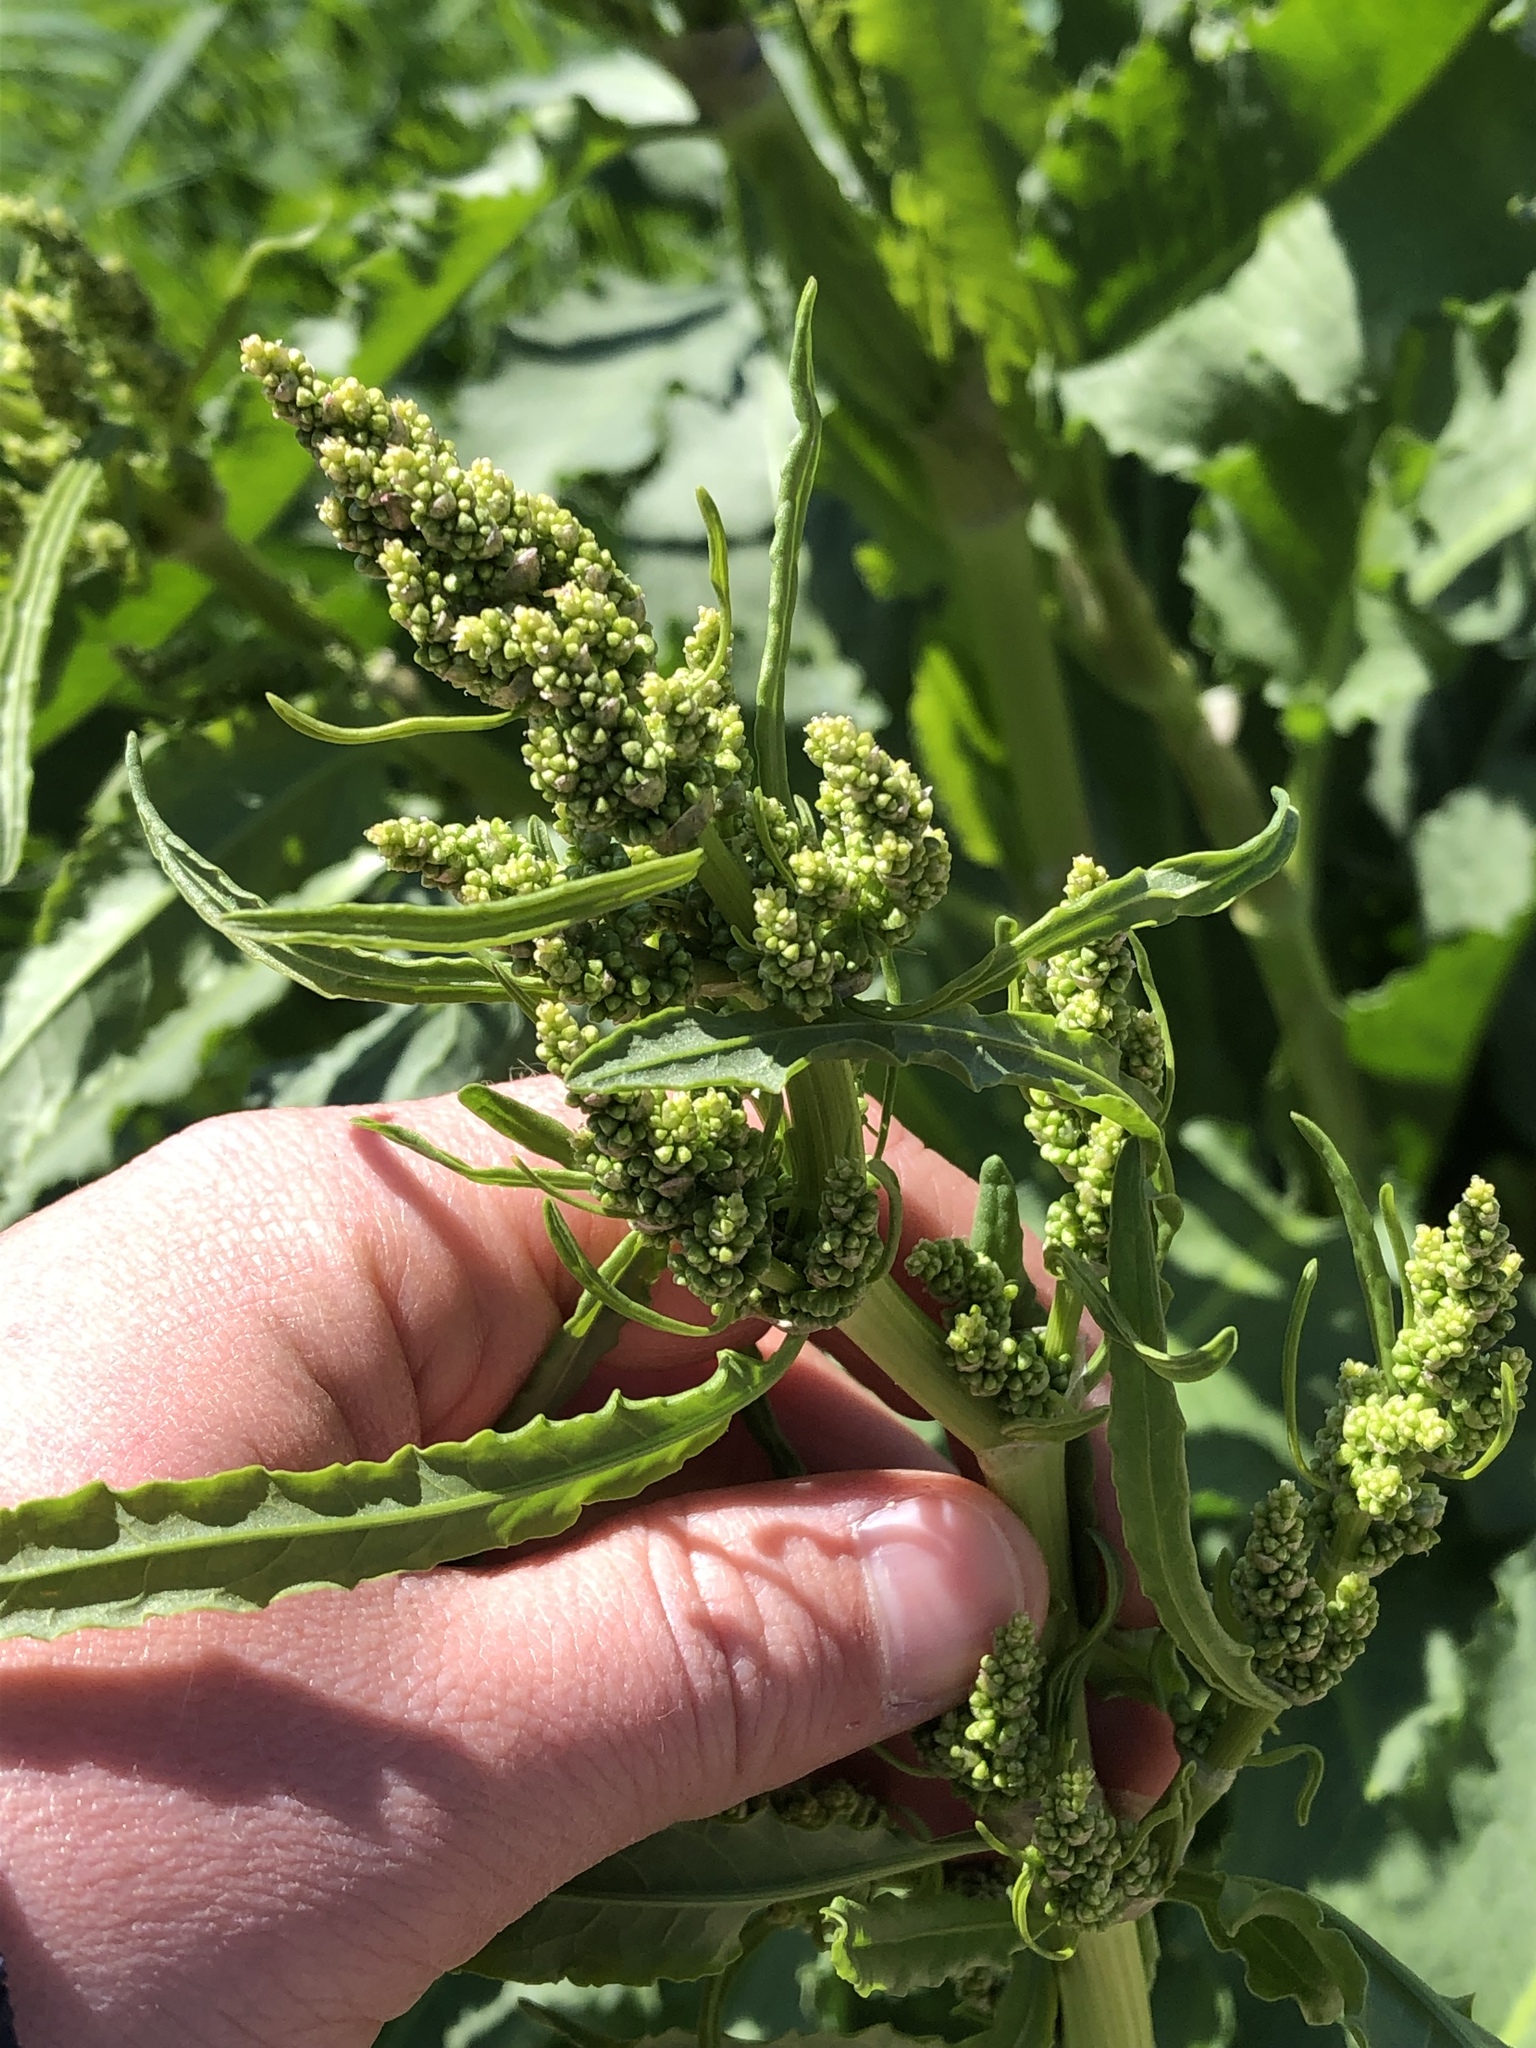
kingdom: Plantae
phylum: Tracheophyta
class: Magnoliopsida
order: Caryophyllales
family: Polygonaceae
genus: Rumex
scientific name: Rumex crispus
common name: Curled dock
